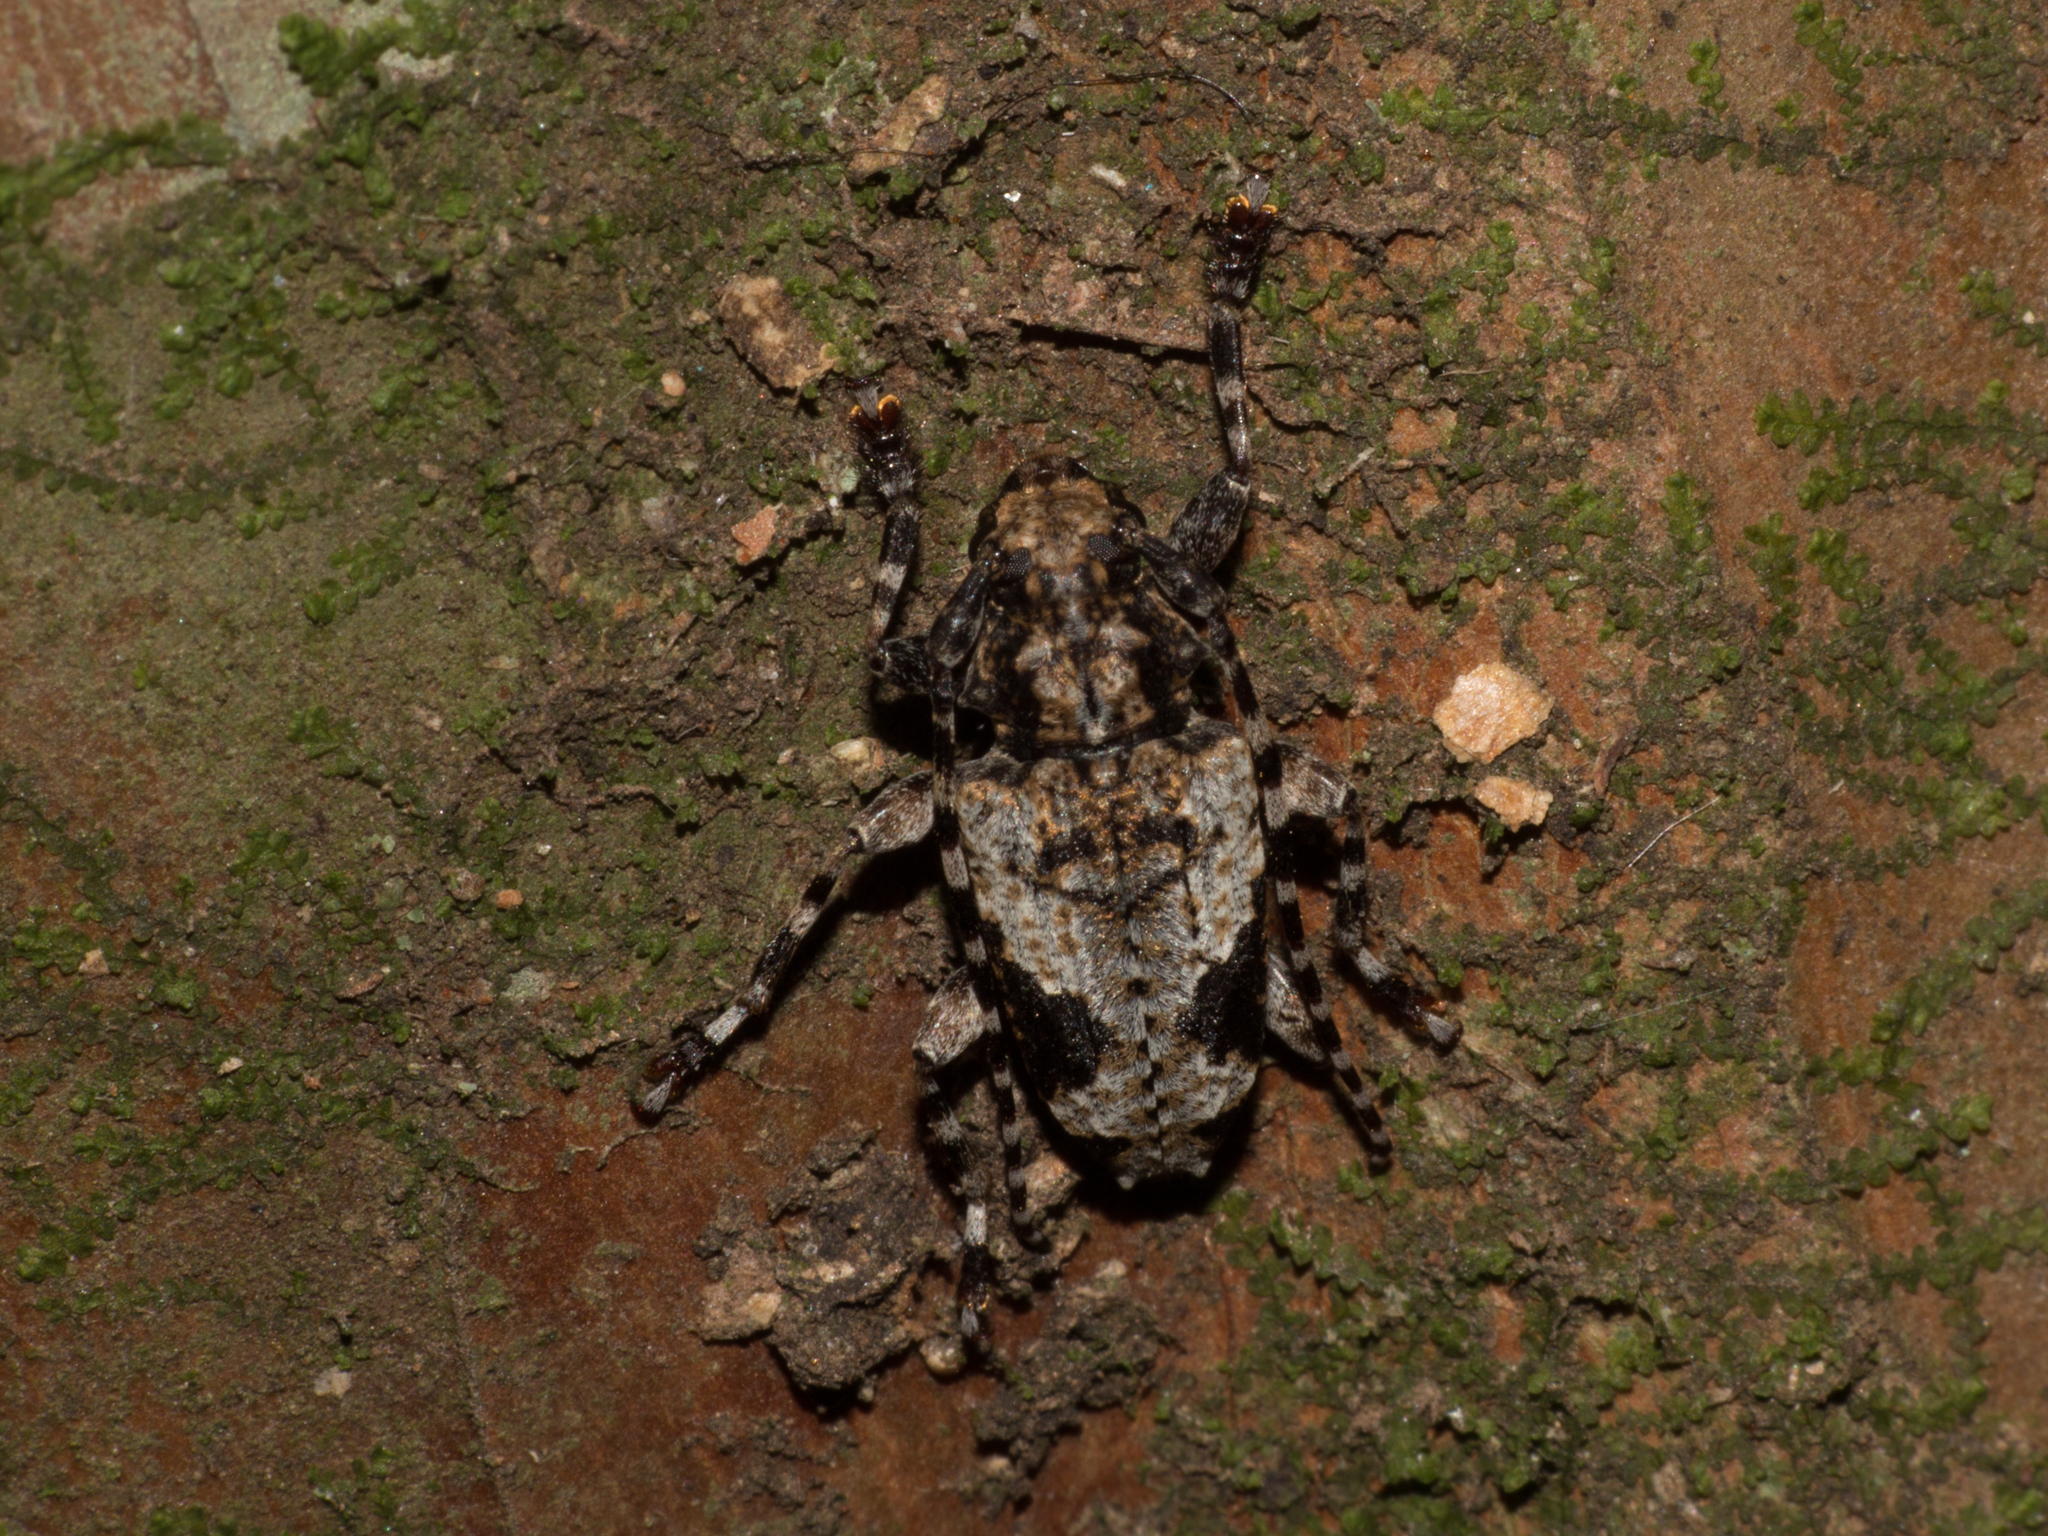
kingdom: Animalia
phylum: Arthropoda
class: Insecta
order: Coleoptera
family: Cerambycidae
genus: Psapharochrus
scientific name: Psapharochrus jaspideus
